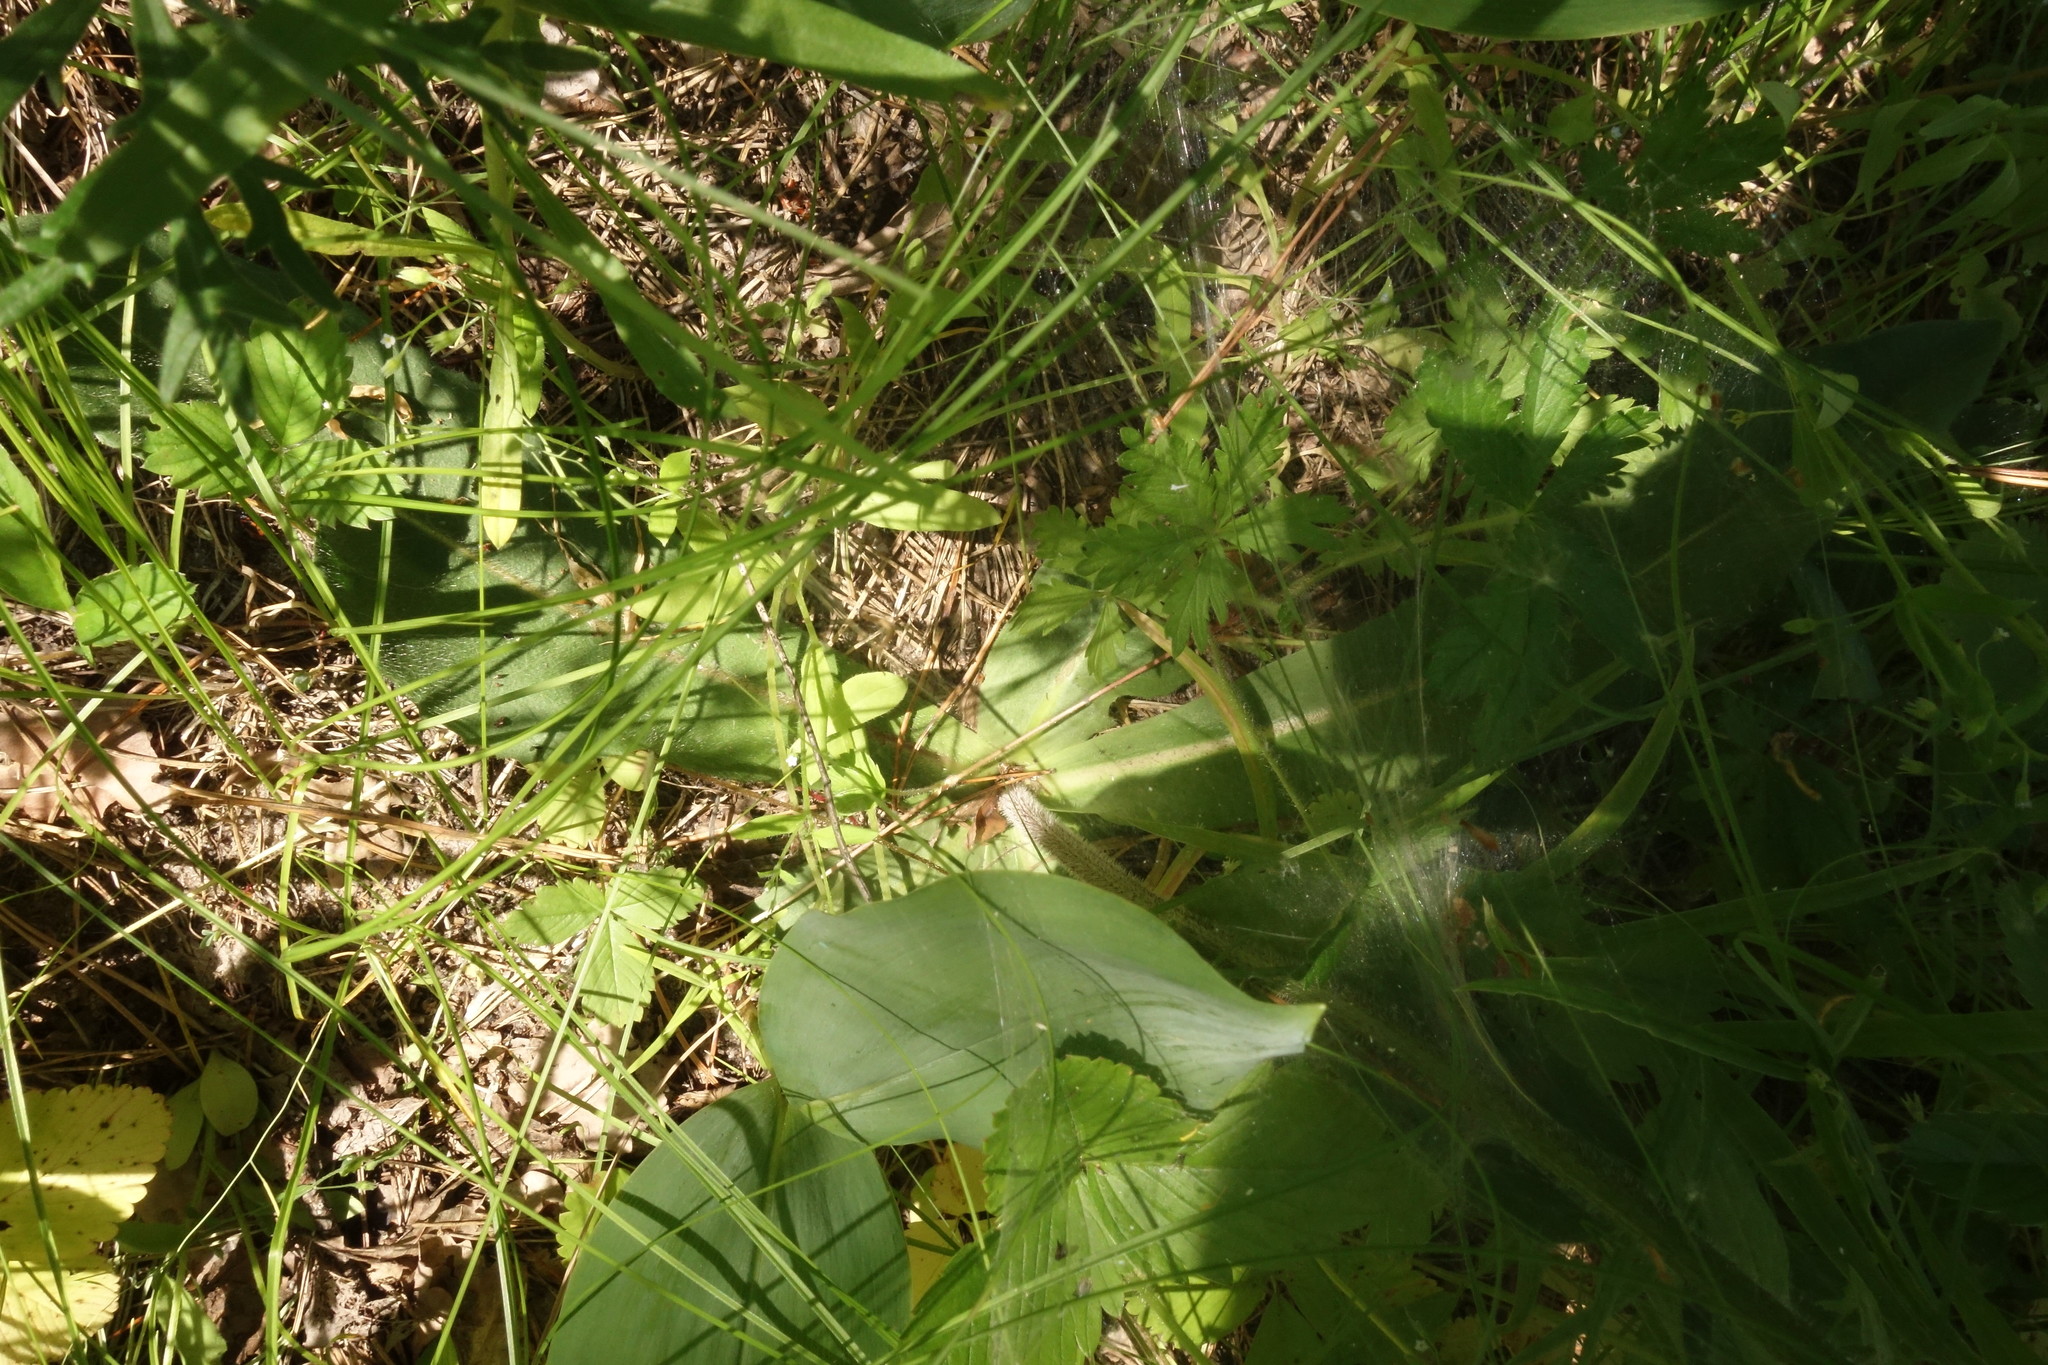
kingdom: Plantae
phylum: Tracheophyta
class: Magnoliopsida
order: Asterales
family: Asteraceae
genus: Trommsdorffia
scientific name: Trommsdorffia maculata
